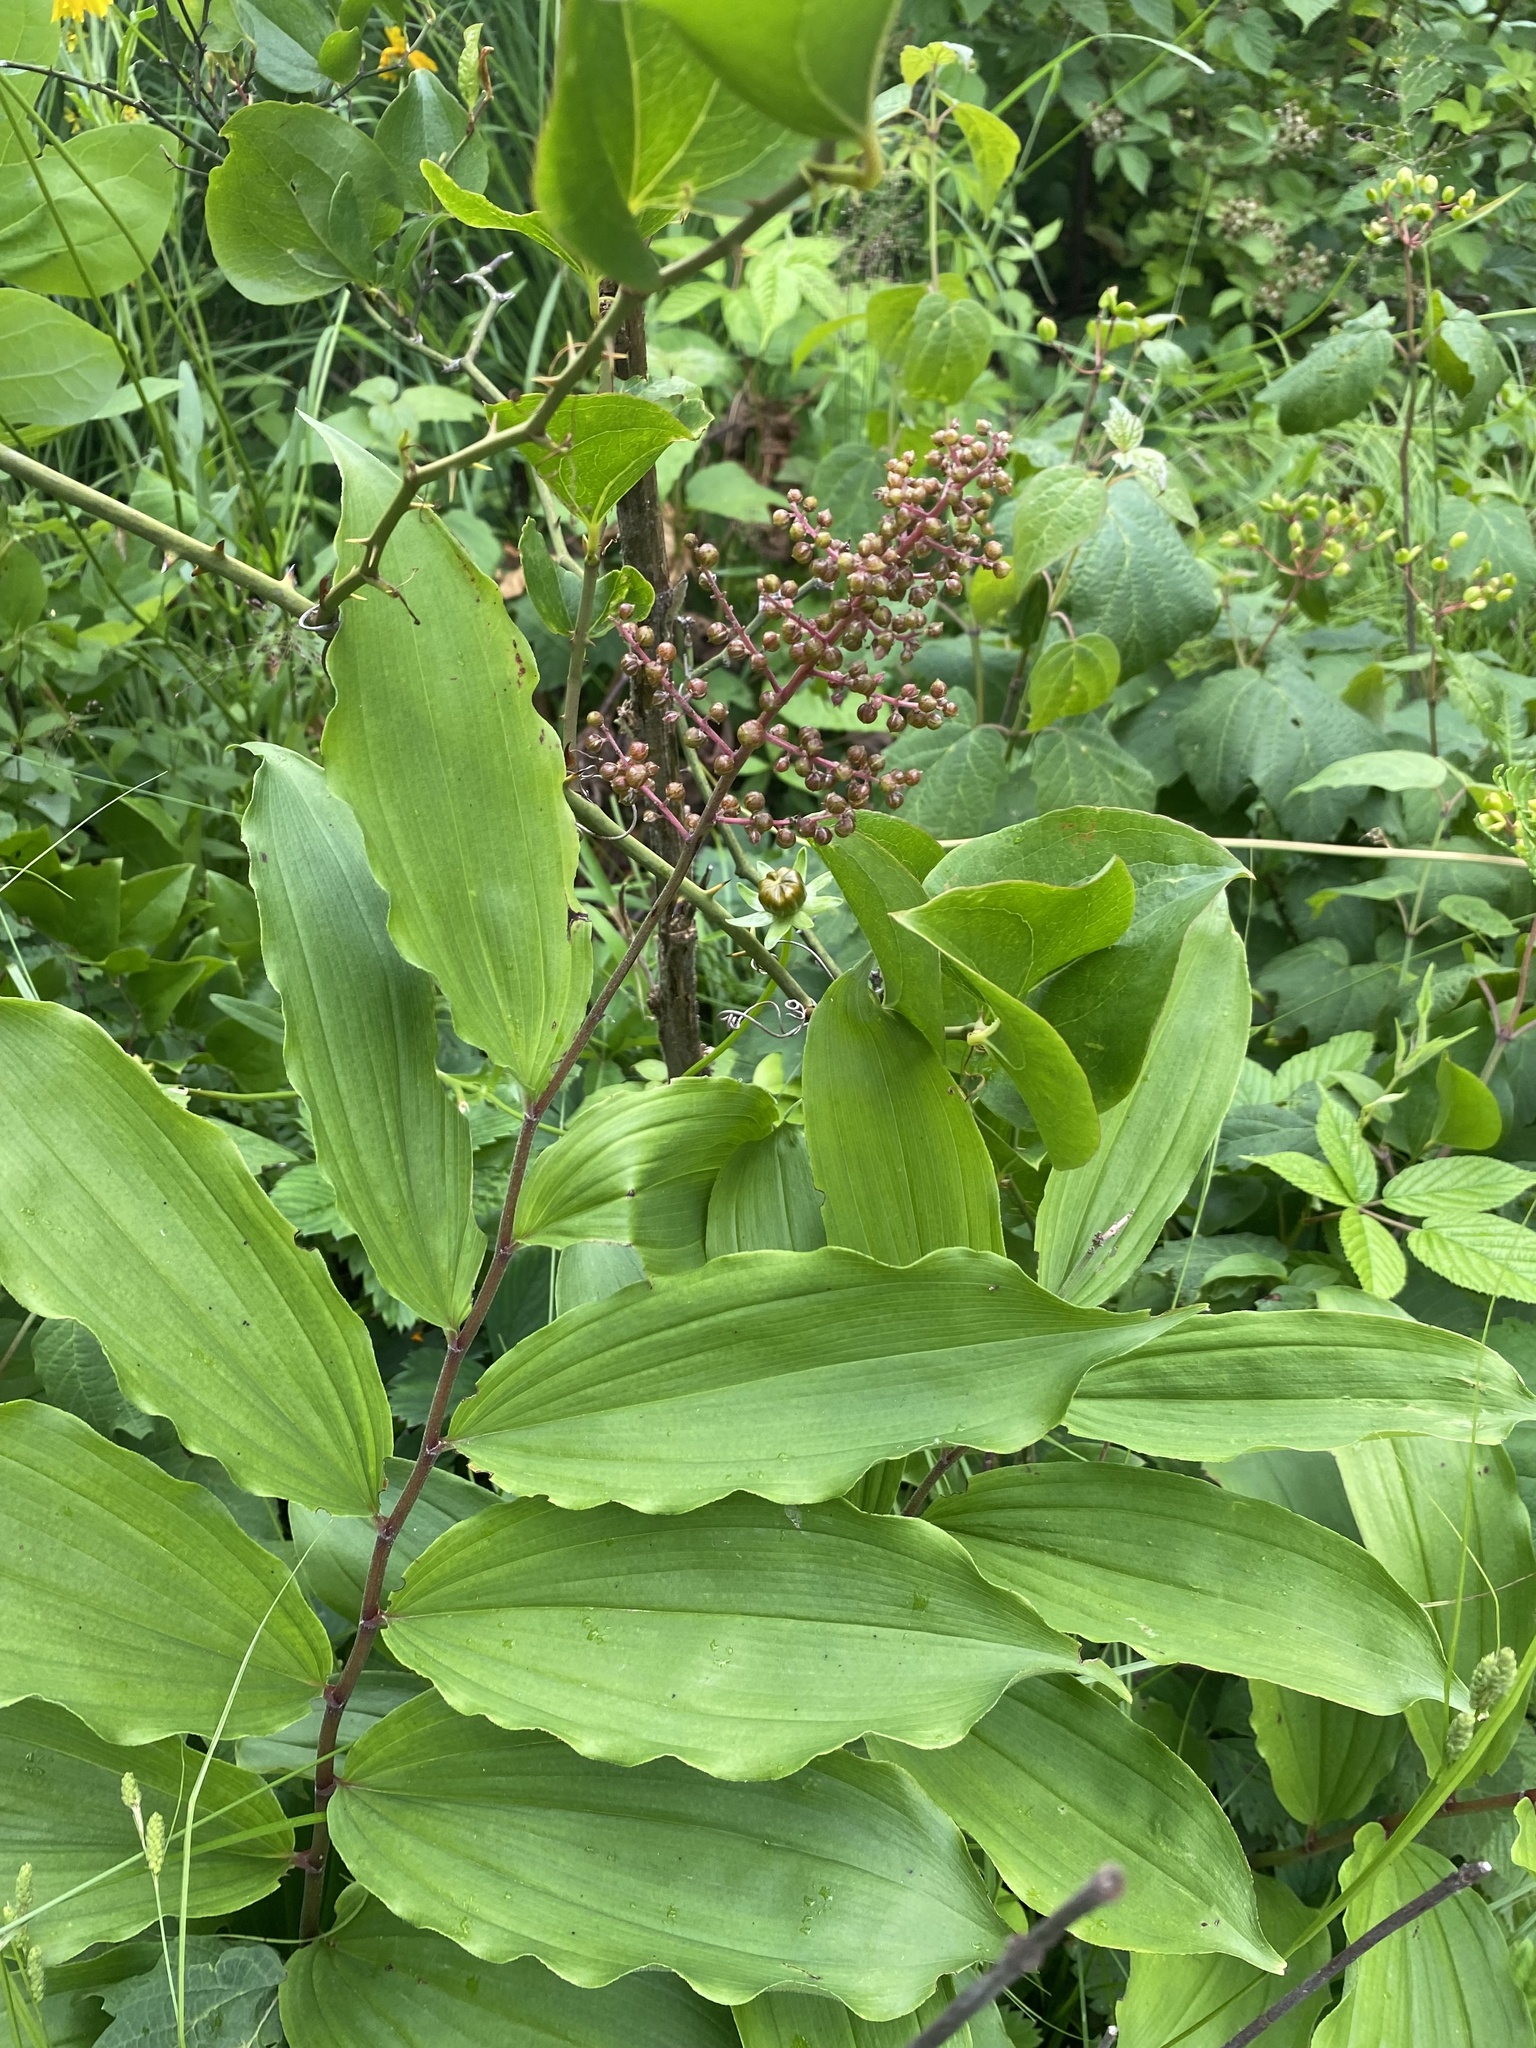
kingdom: Plantae
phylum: Tracheophyta
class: Liliopsida
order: Asparagales
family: Asparagaceae
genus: Maianthemum
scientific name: Maianthemum racemosum
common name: False spikenard
